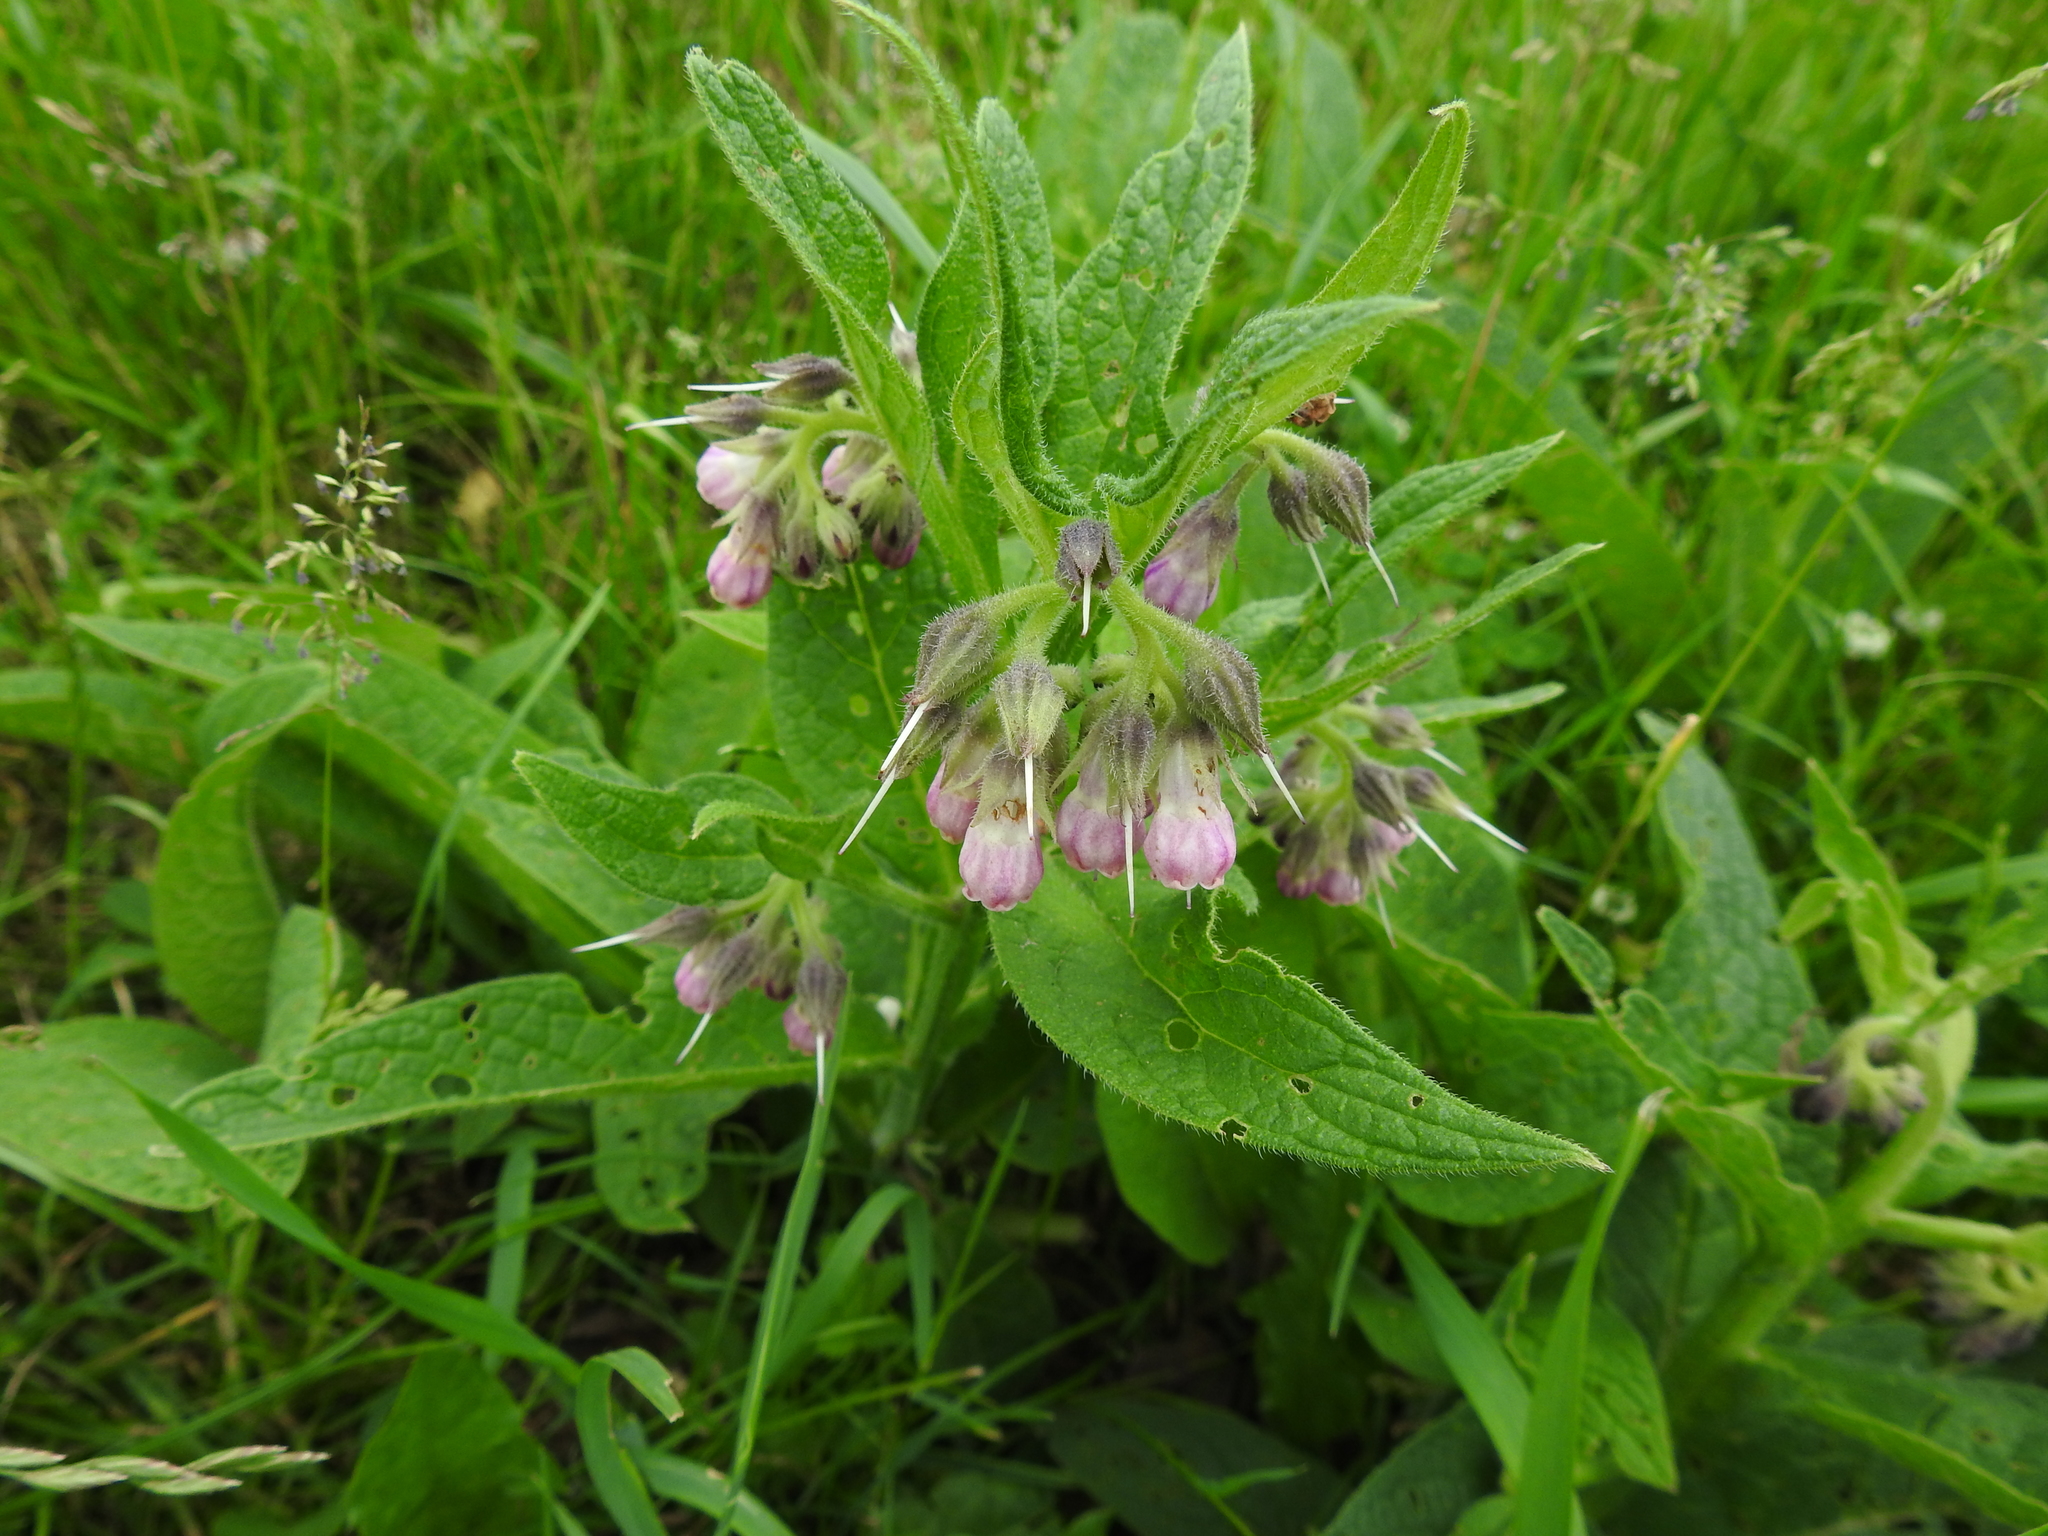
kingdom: Plantae
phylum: Tracheophyta
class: Magnoliopsida
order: Boraginales
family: Boraginaceae
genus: Symphytum
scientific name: Symphytum officinale
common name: Common comfrey
